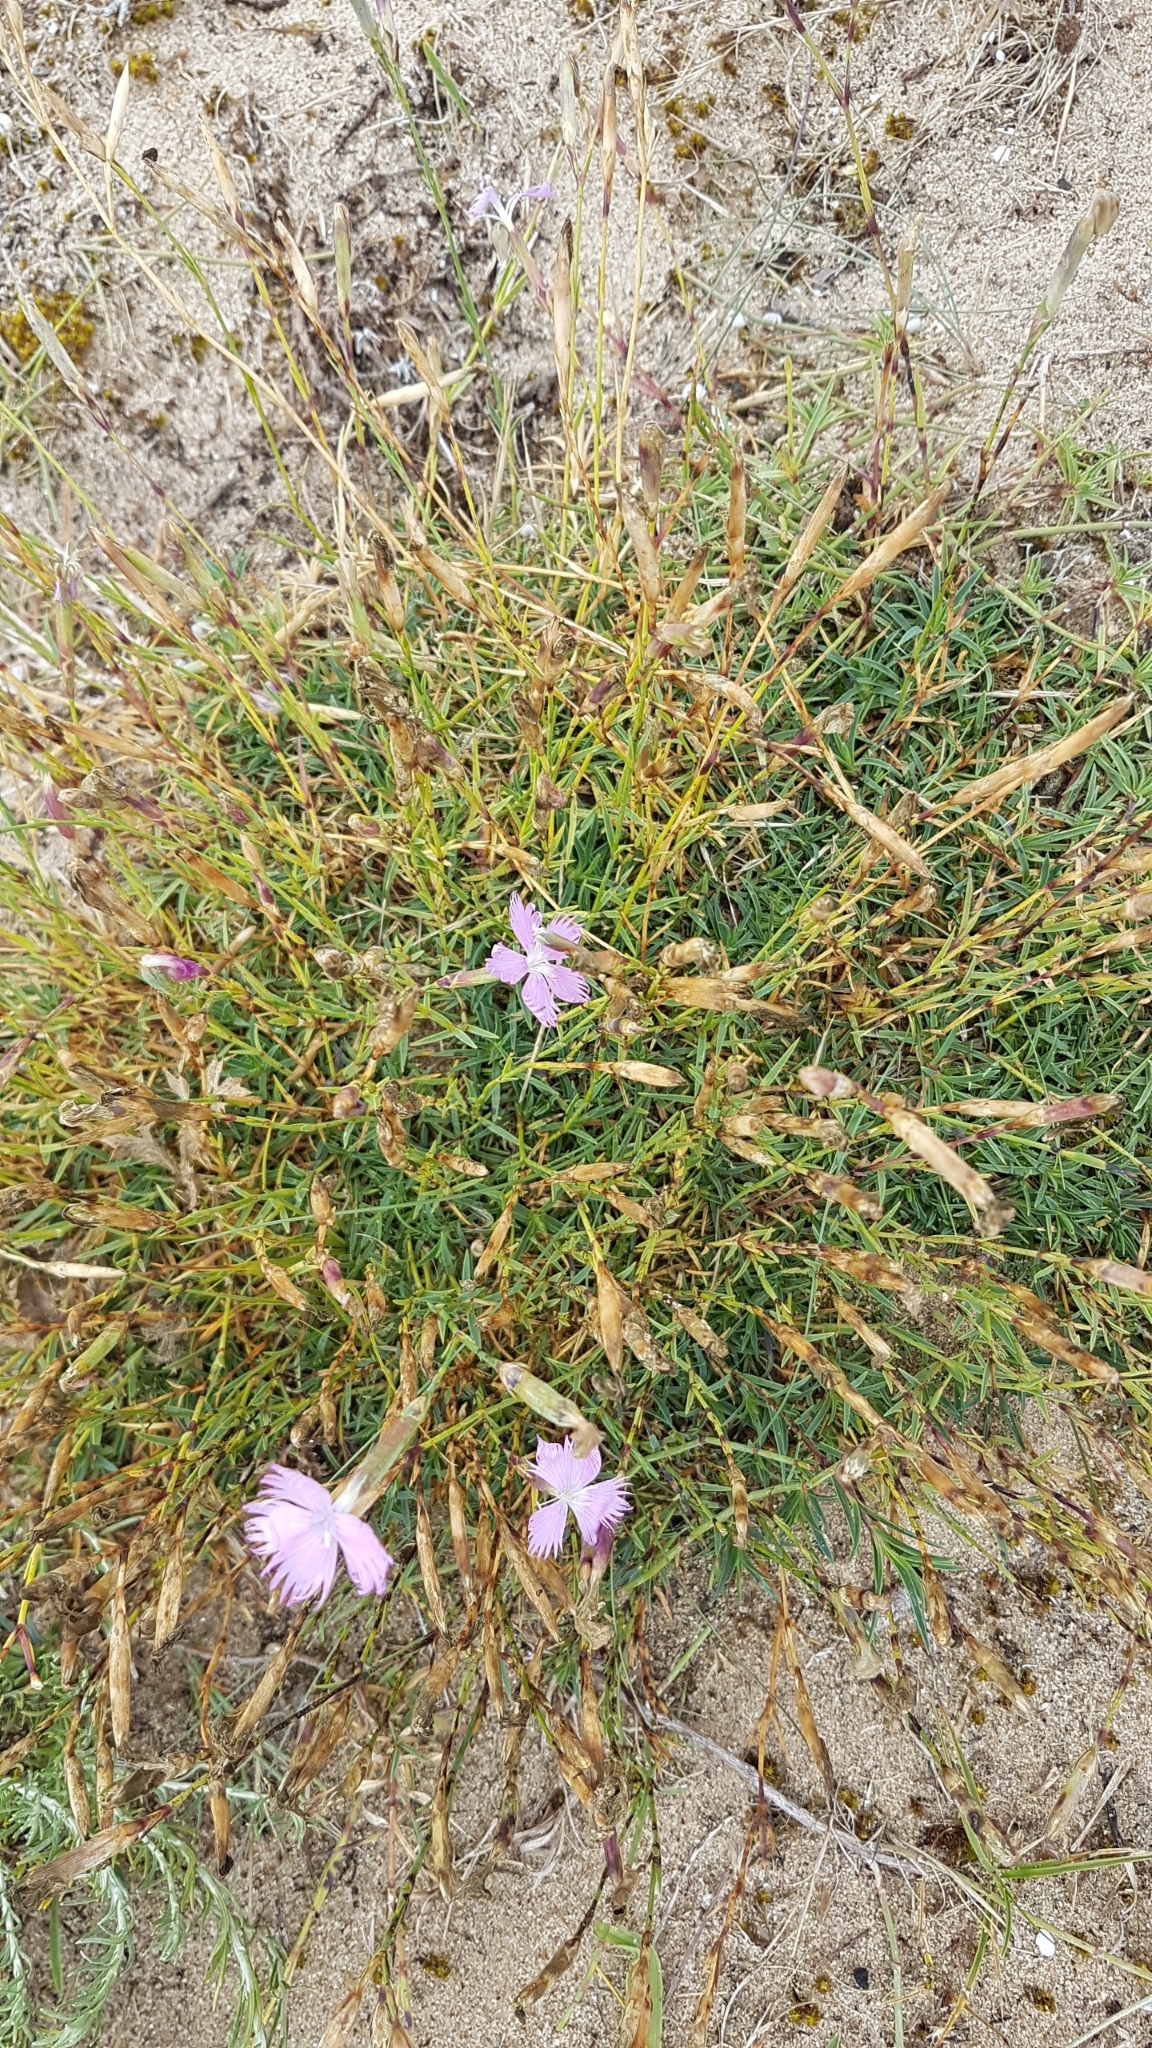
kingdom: Plantae
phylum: Tracheophyta
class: Magnoliopsida
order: Caryophyllales
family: Caryophyllaceae
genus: Dianthus
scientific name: Dianthus gallicus
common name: Jersey pink
